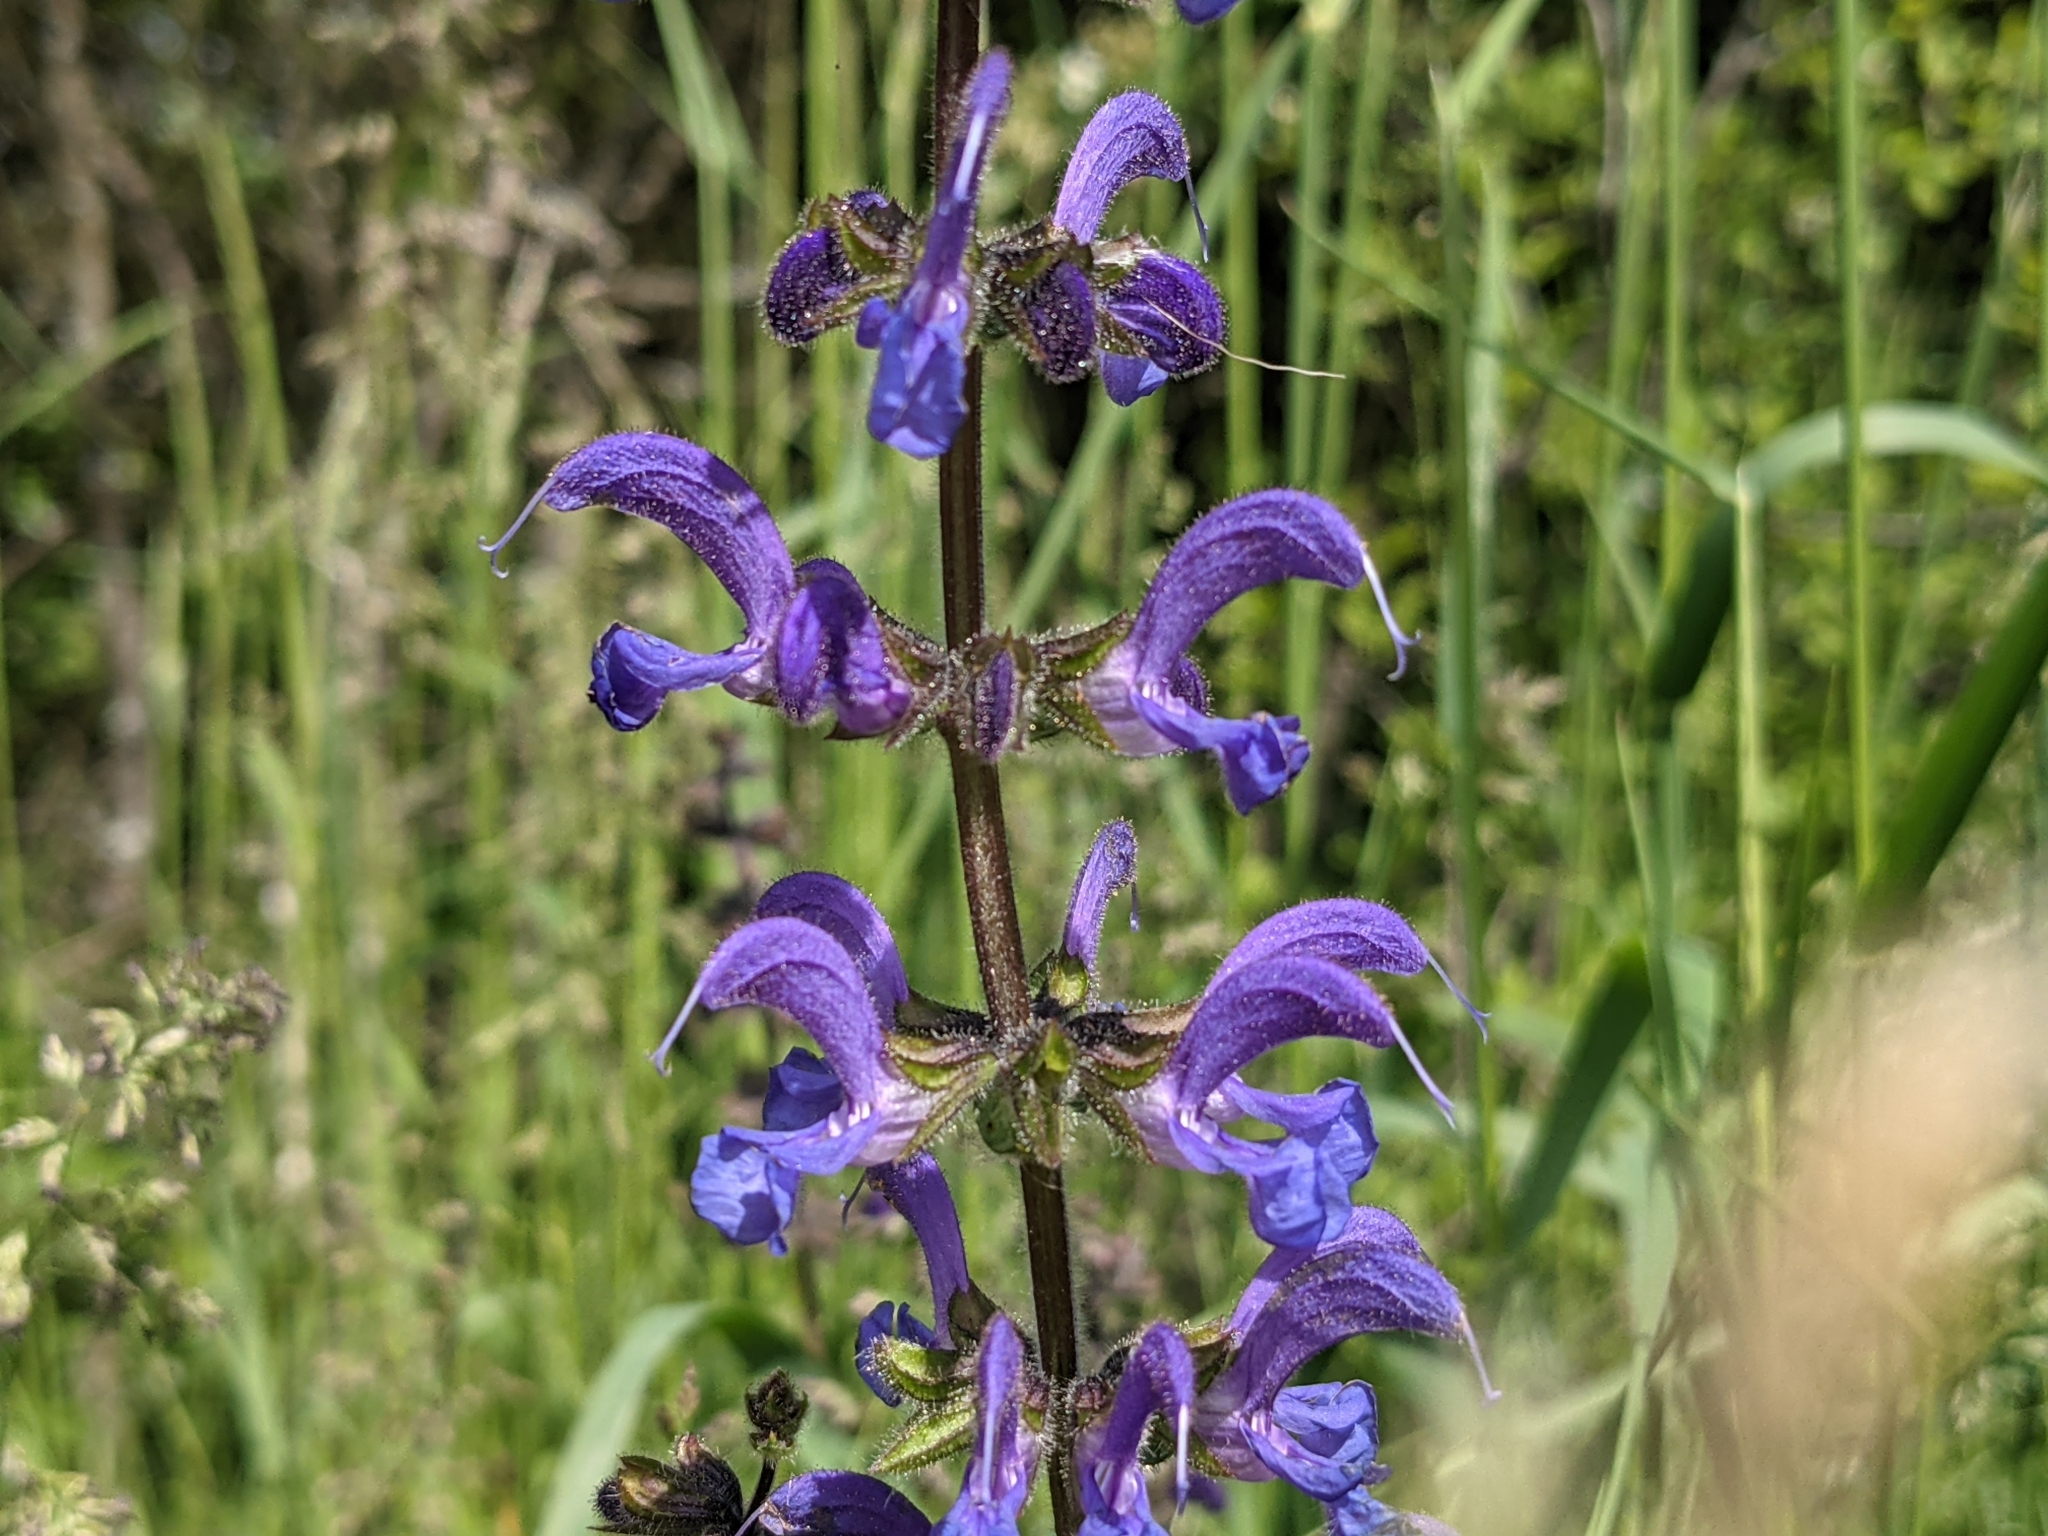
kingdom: Plantae
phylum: Tracheophyta
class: Magnoliopsida
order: Lamiales
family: Lamiaceae
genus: Salvia
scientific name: Salvia pratensis
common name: Meadow sage
